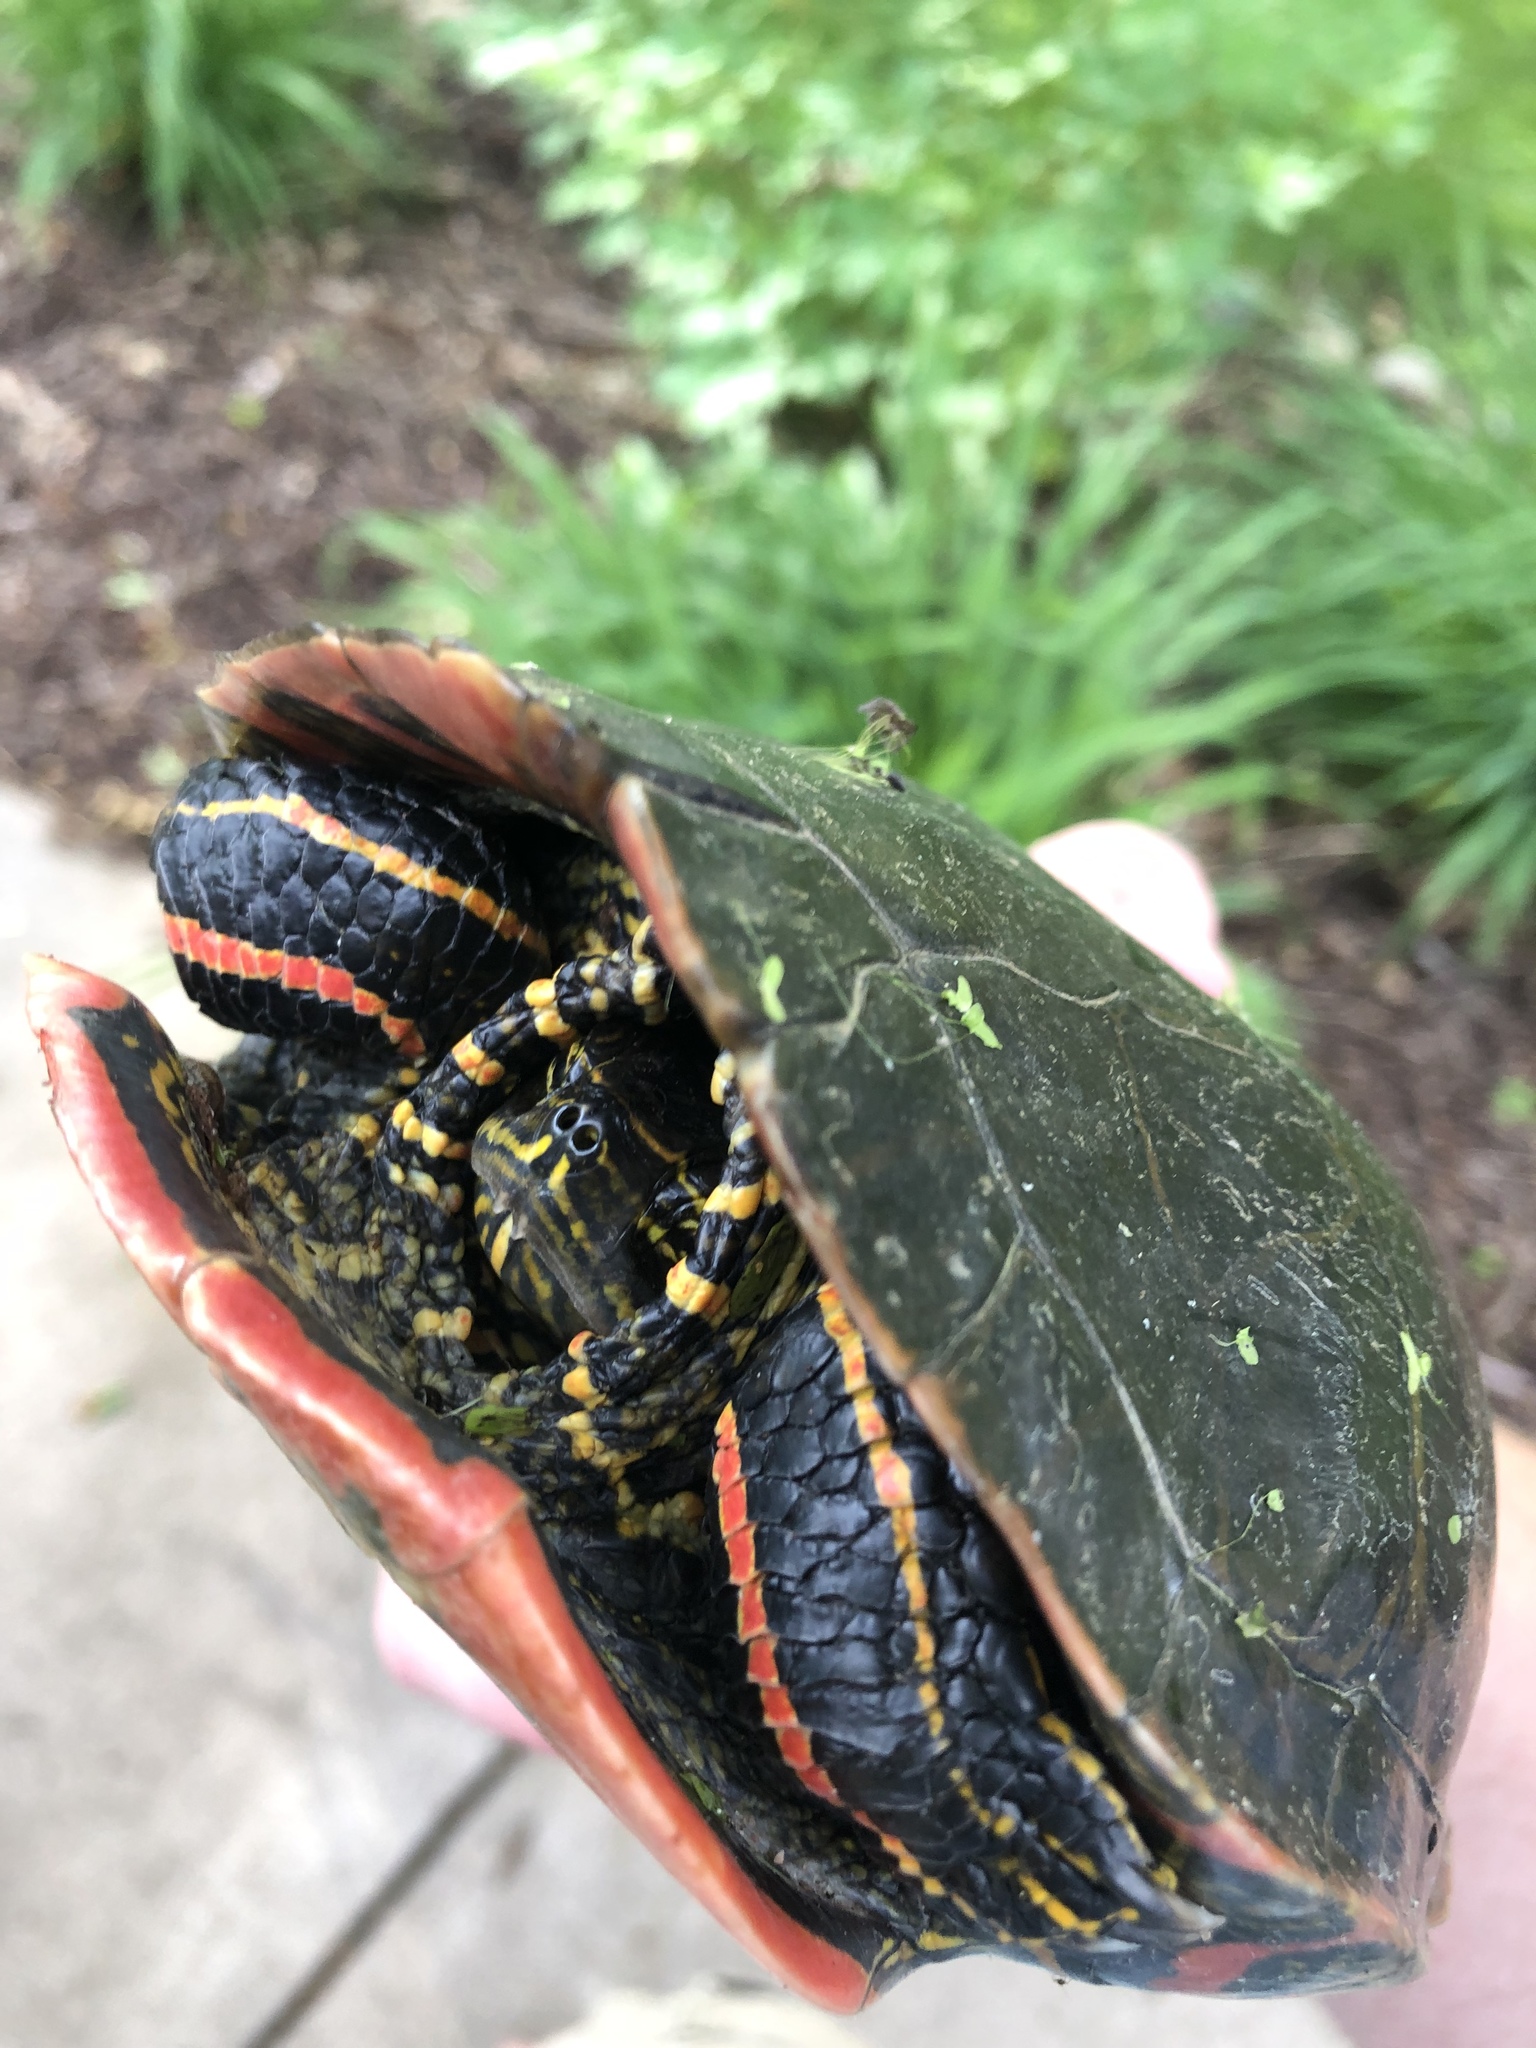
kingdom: Animalia
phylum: Chordata
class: Testudines
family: Emydidae
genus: Chrysemys
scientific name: Chrysemys picta
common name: Painted turtle
